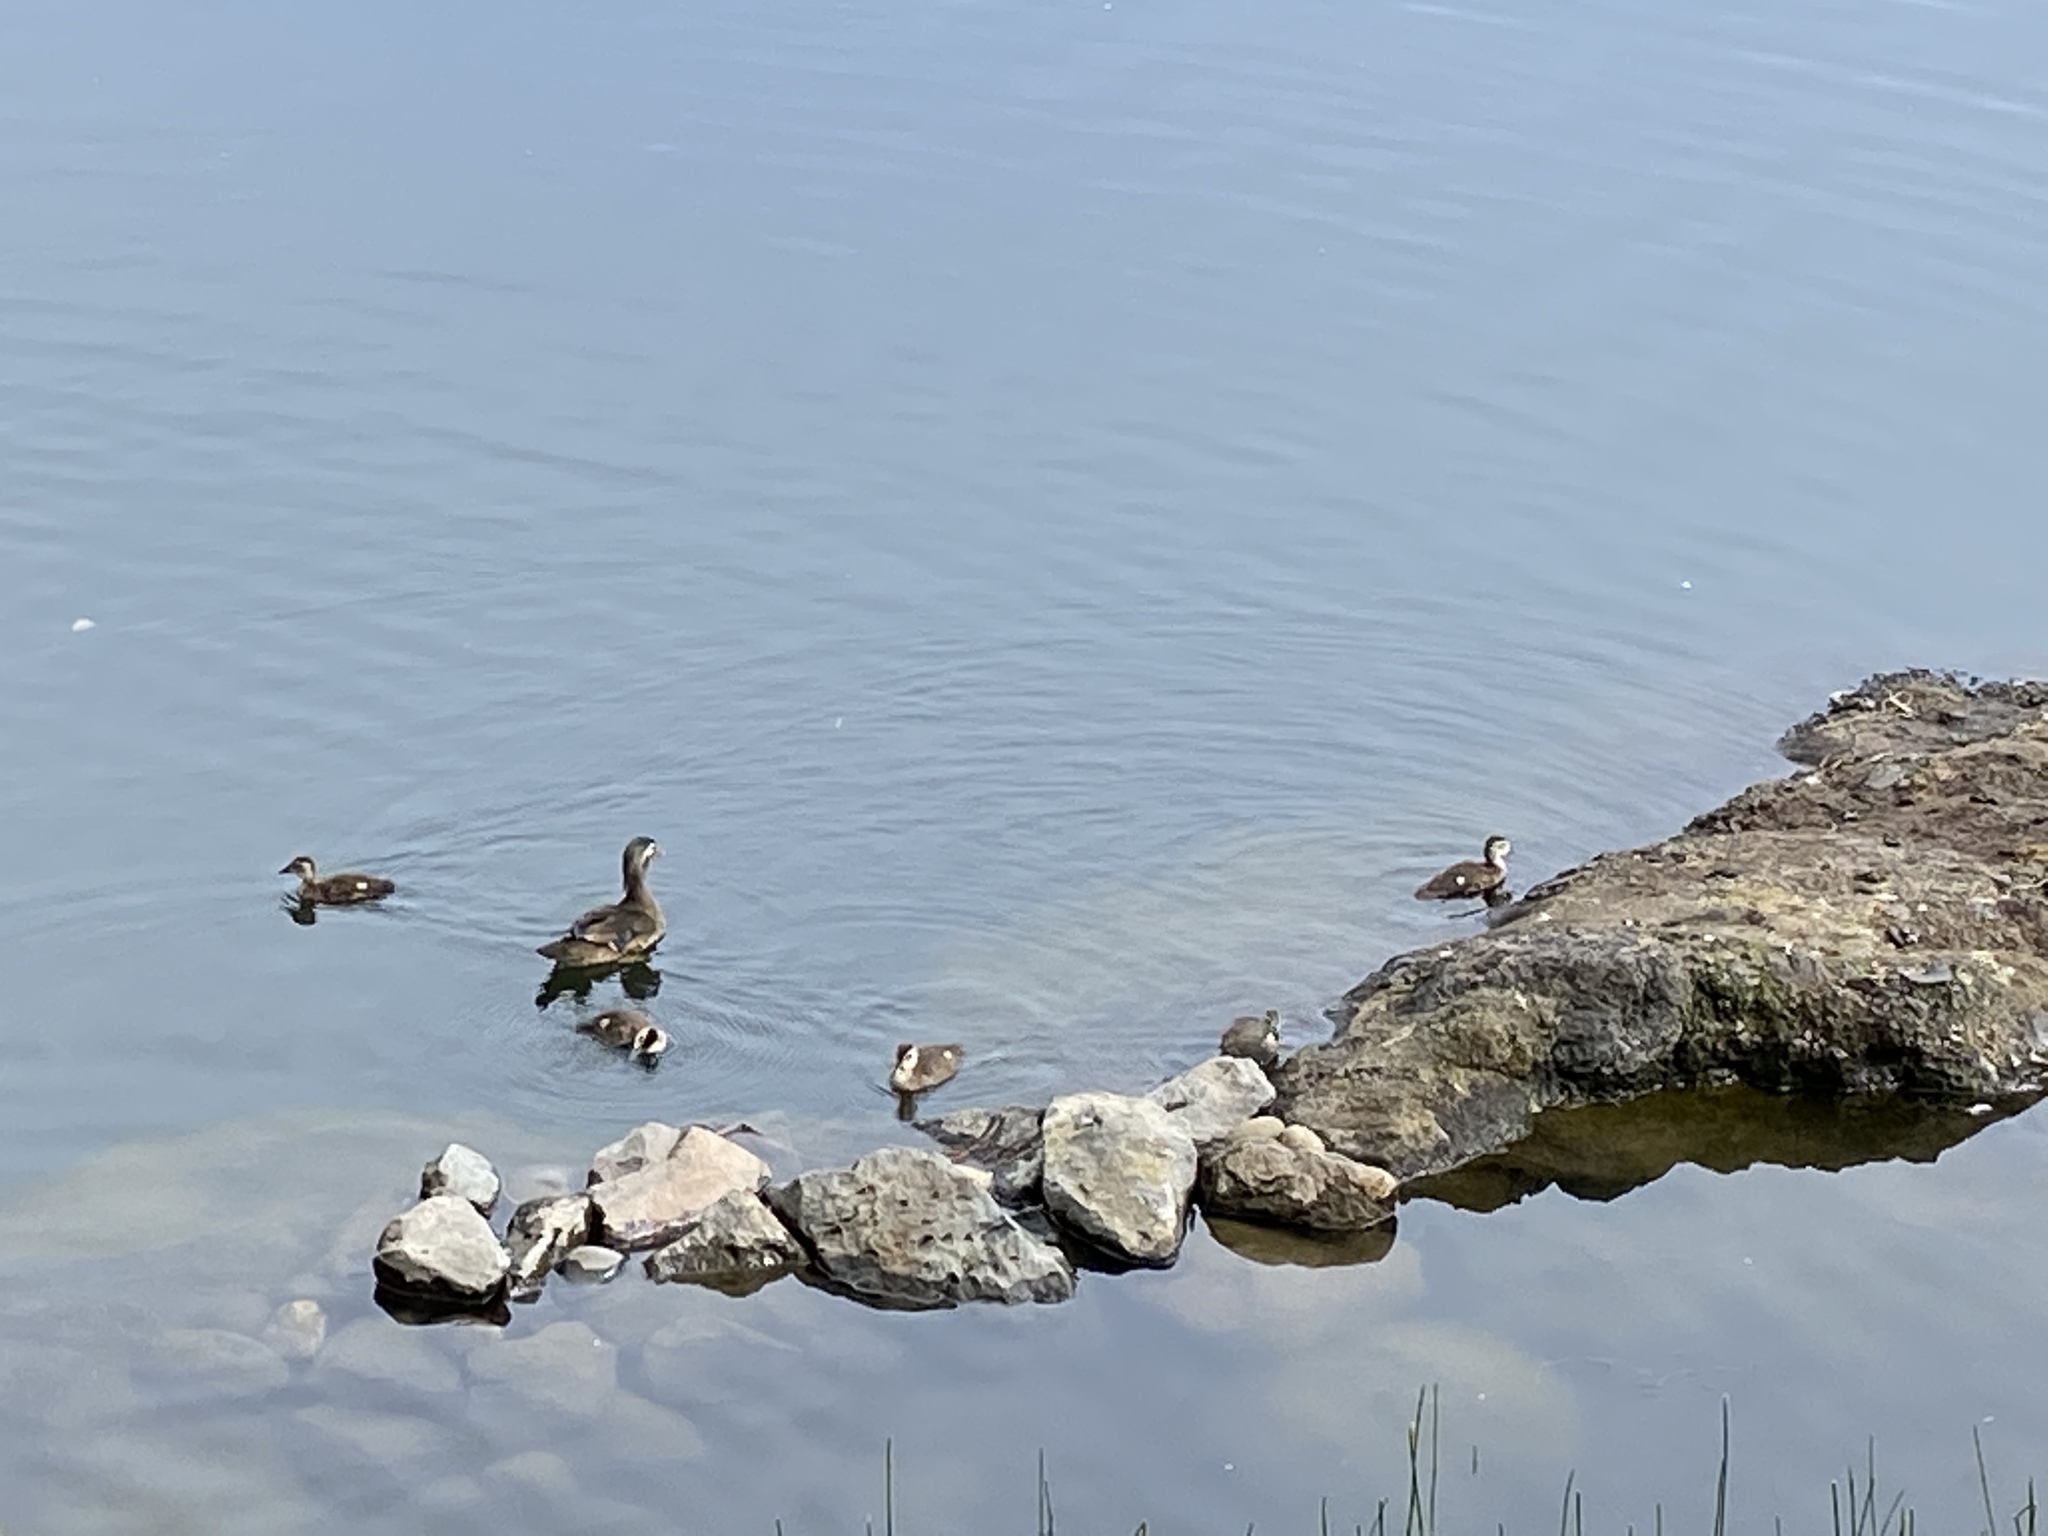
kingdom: Animalia
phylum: Chordata
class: Aves
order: Anseriformes
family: Anatidae
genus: Aix
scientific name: Aix sponsa
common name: Wood duck
